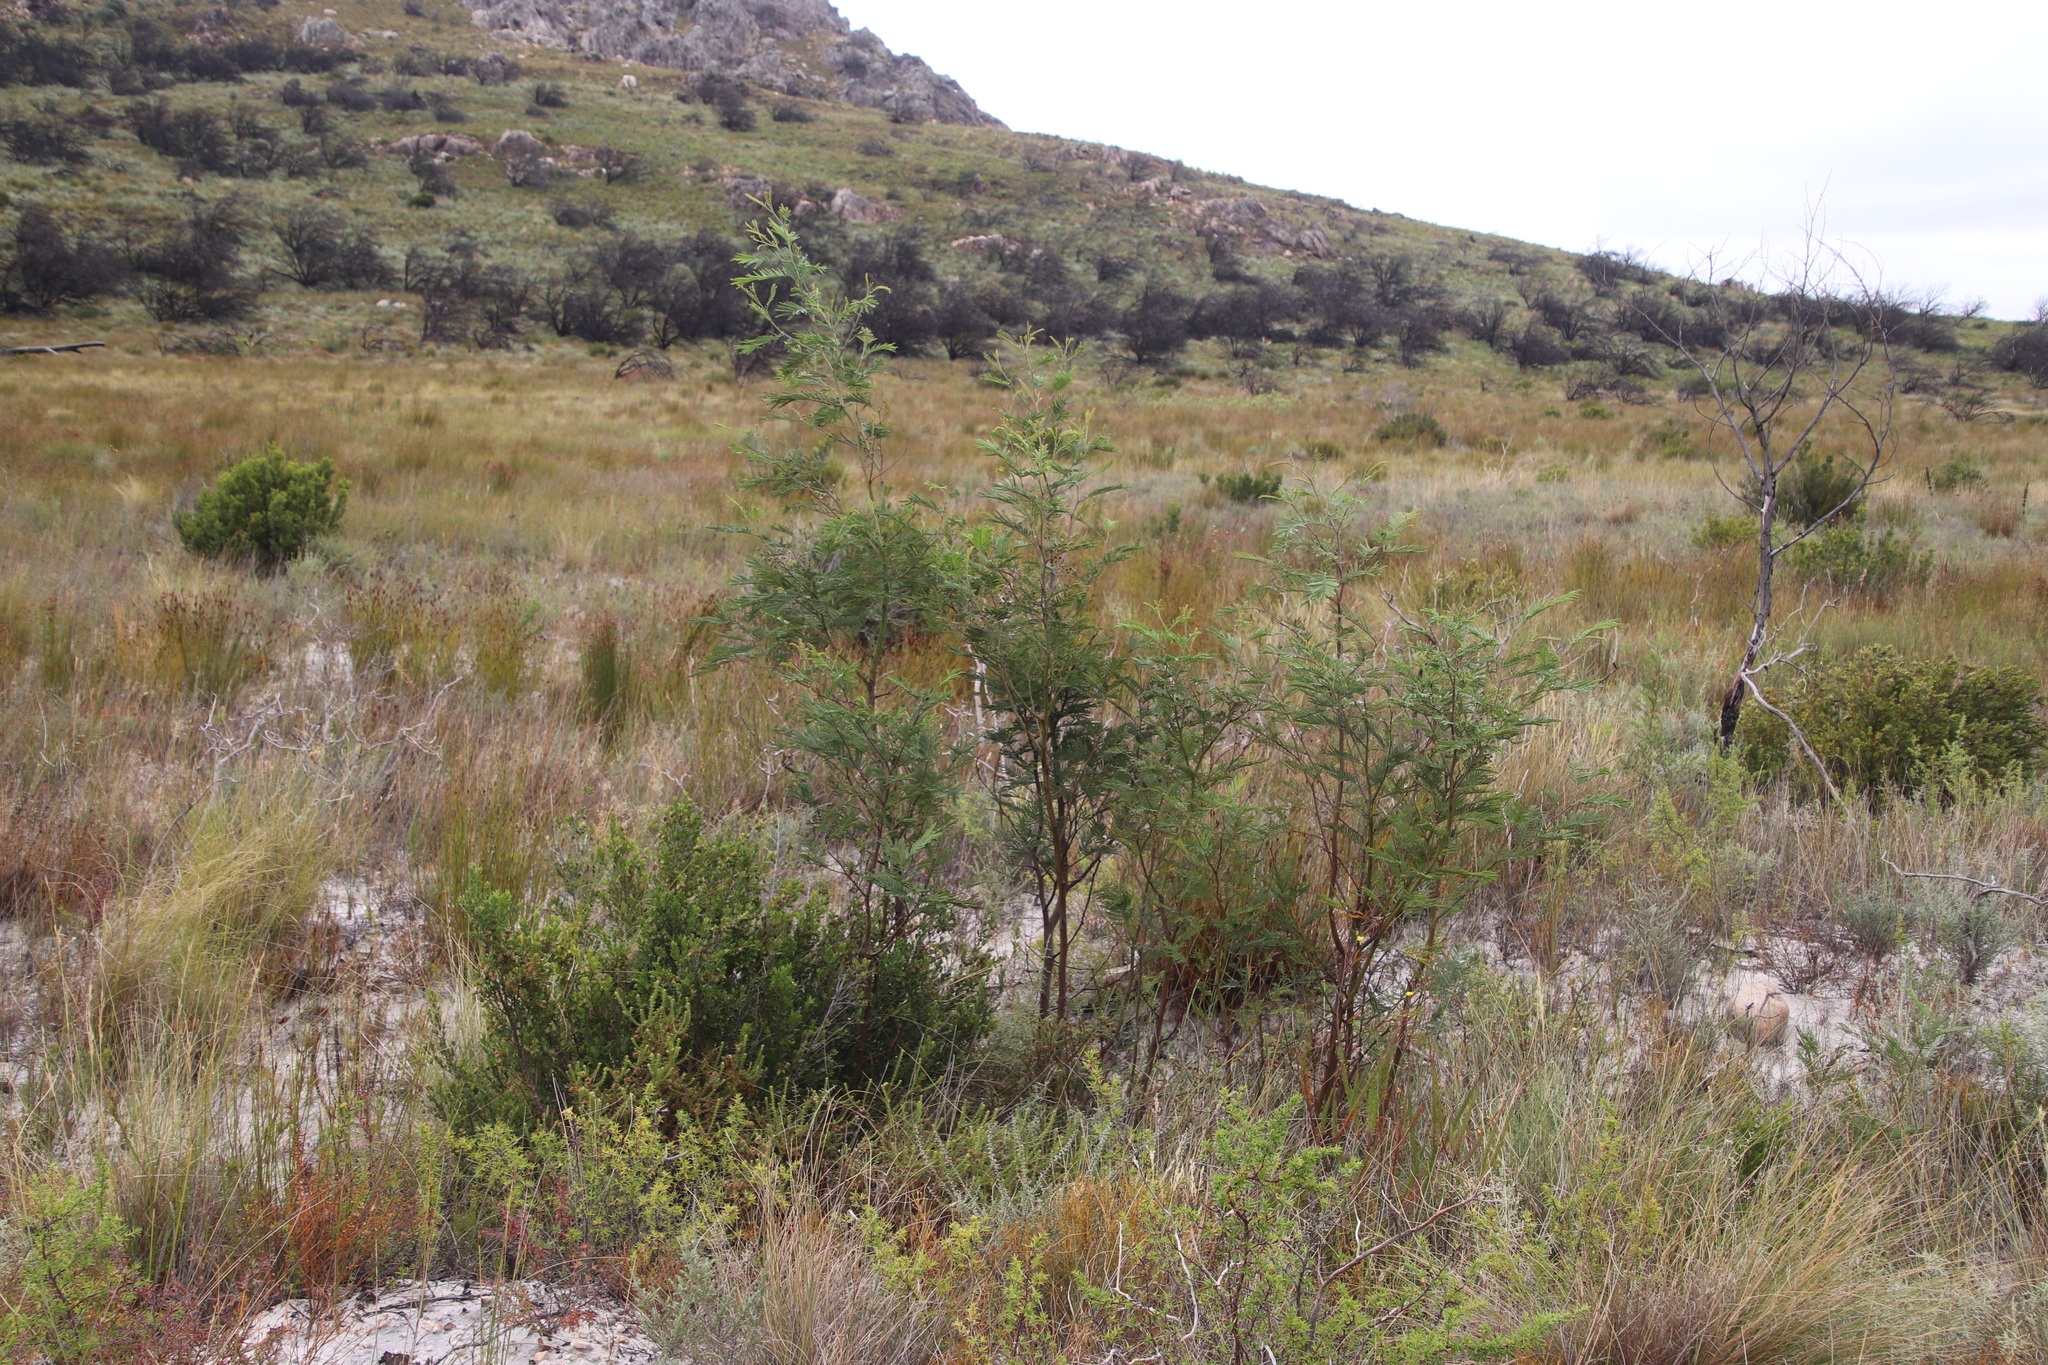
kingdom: Plantae
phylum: Tracheophyta
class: Magnoliopsida
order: Fabales
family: Fabaceae
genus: Acacia
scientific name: Acacia mearnsii
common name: Black wattle
